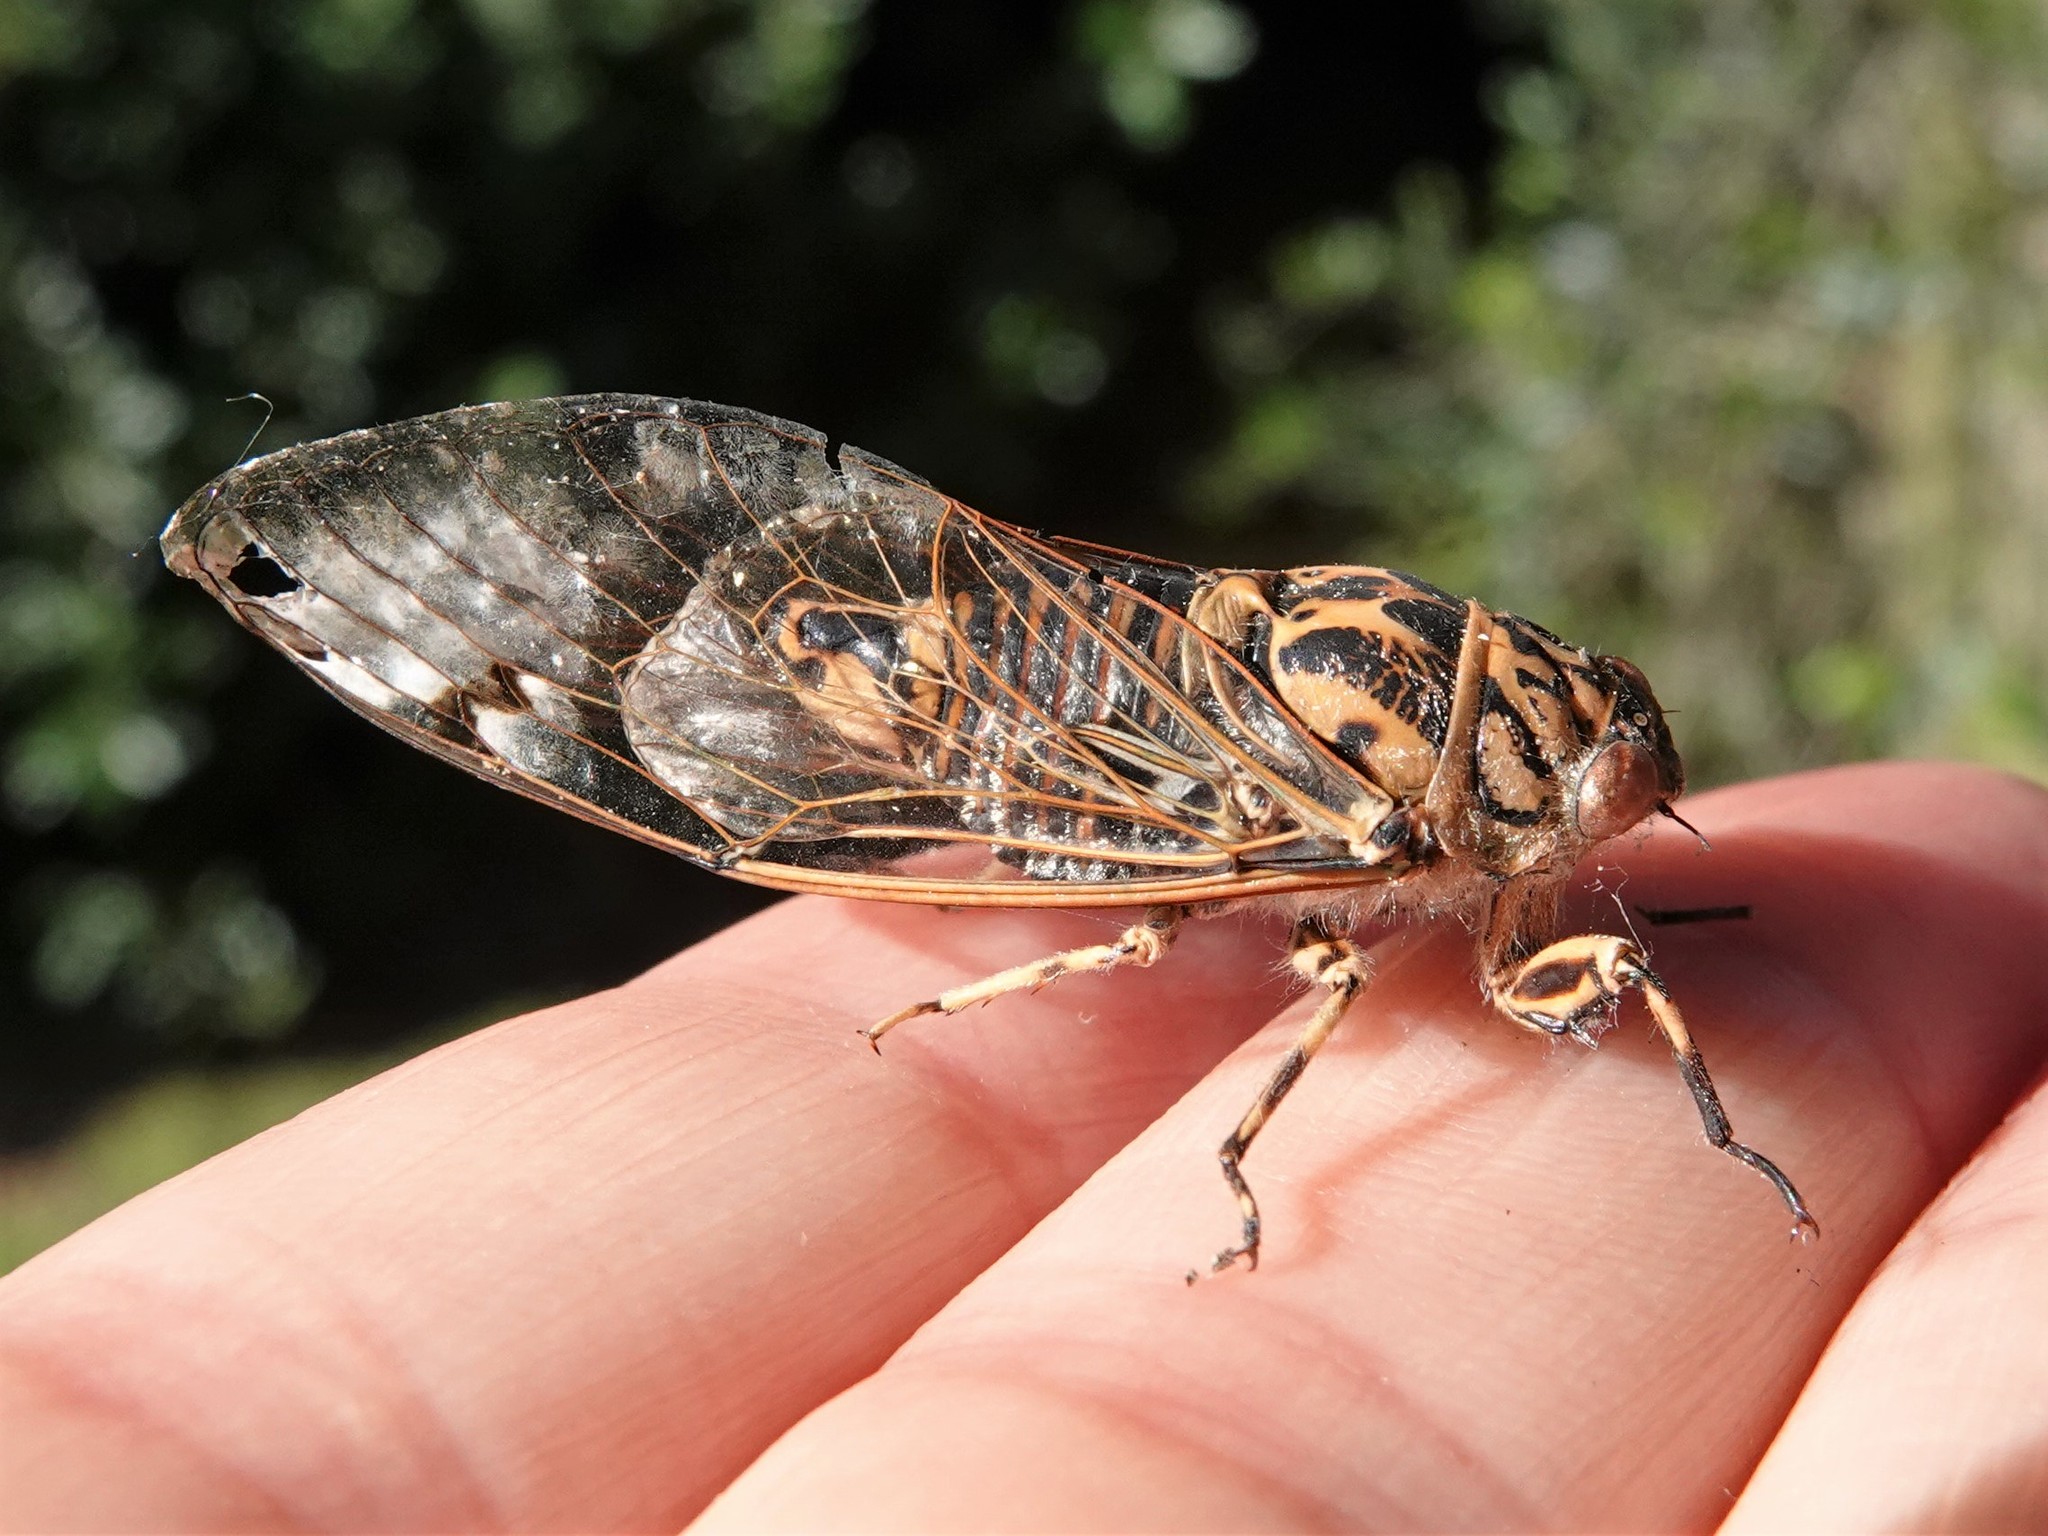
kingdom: Animalia
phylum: Arthropoda
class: Insecta
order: Hemiptera
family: Cicadidae
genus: Amphipsalta
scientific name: Amphipsalta zelandica
